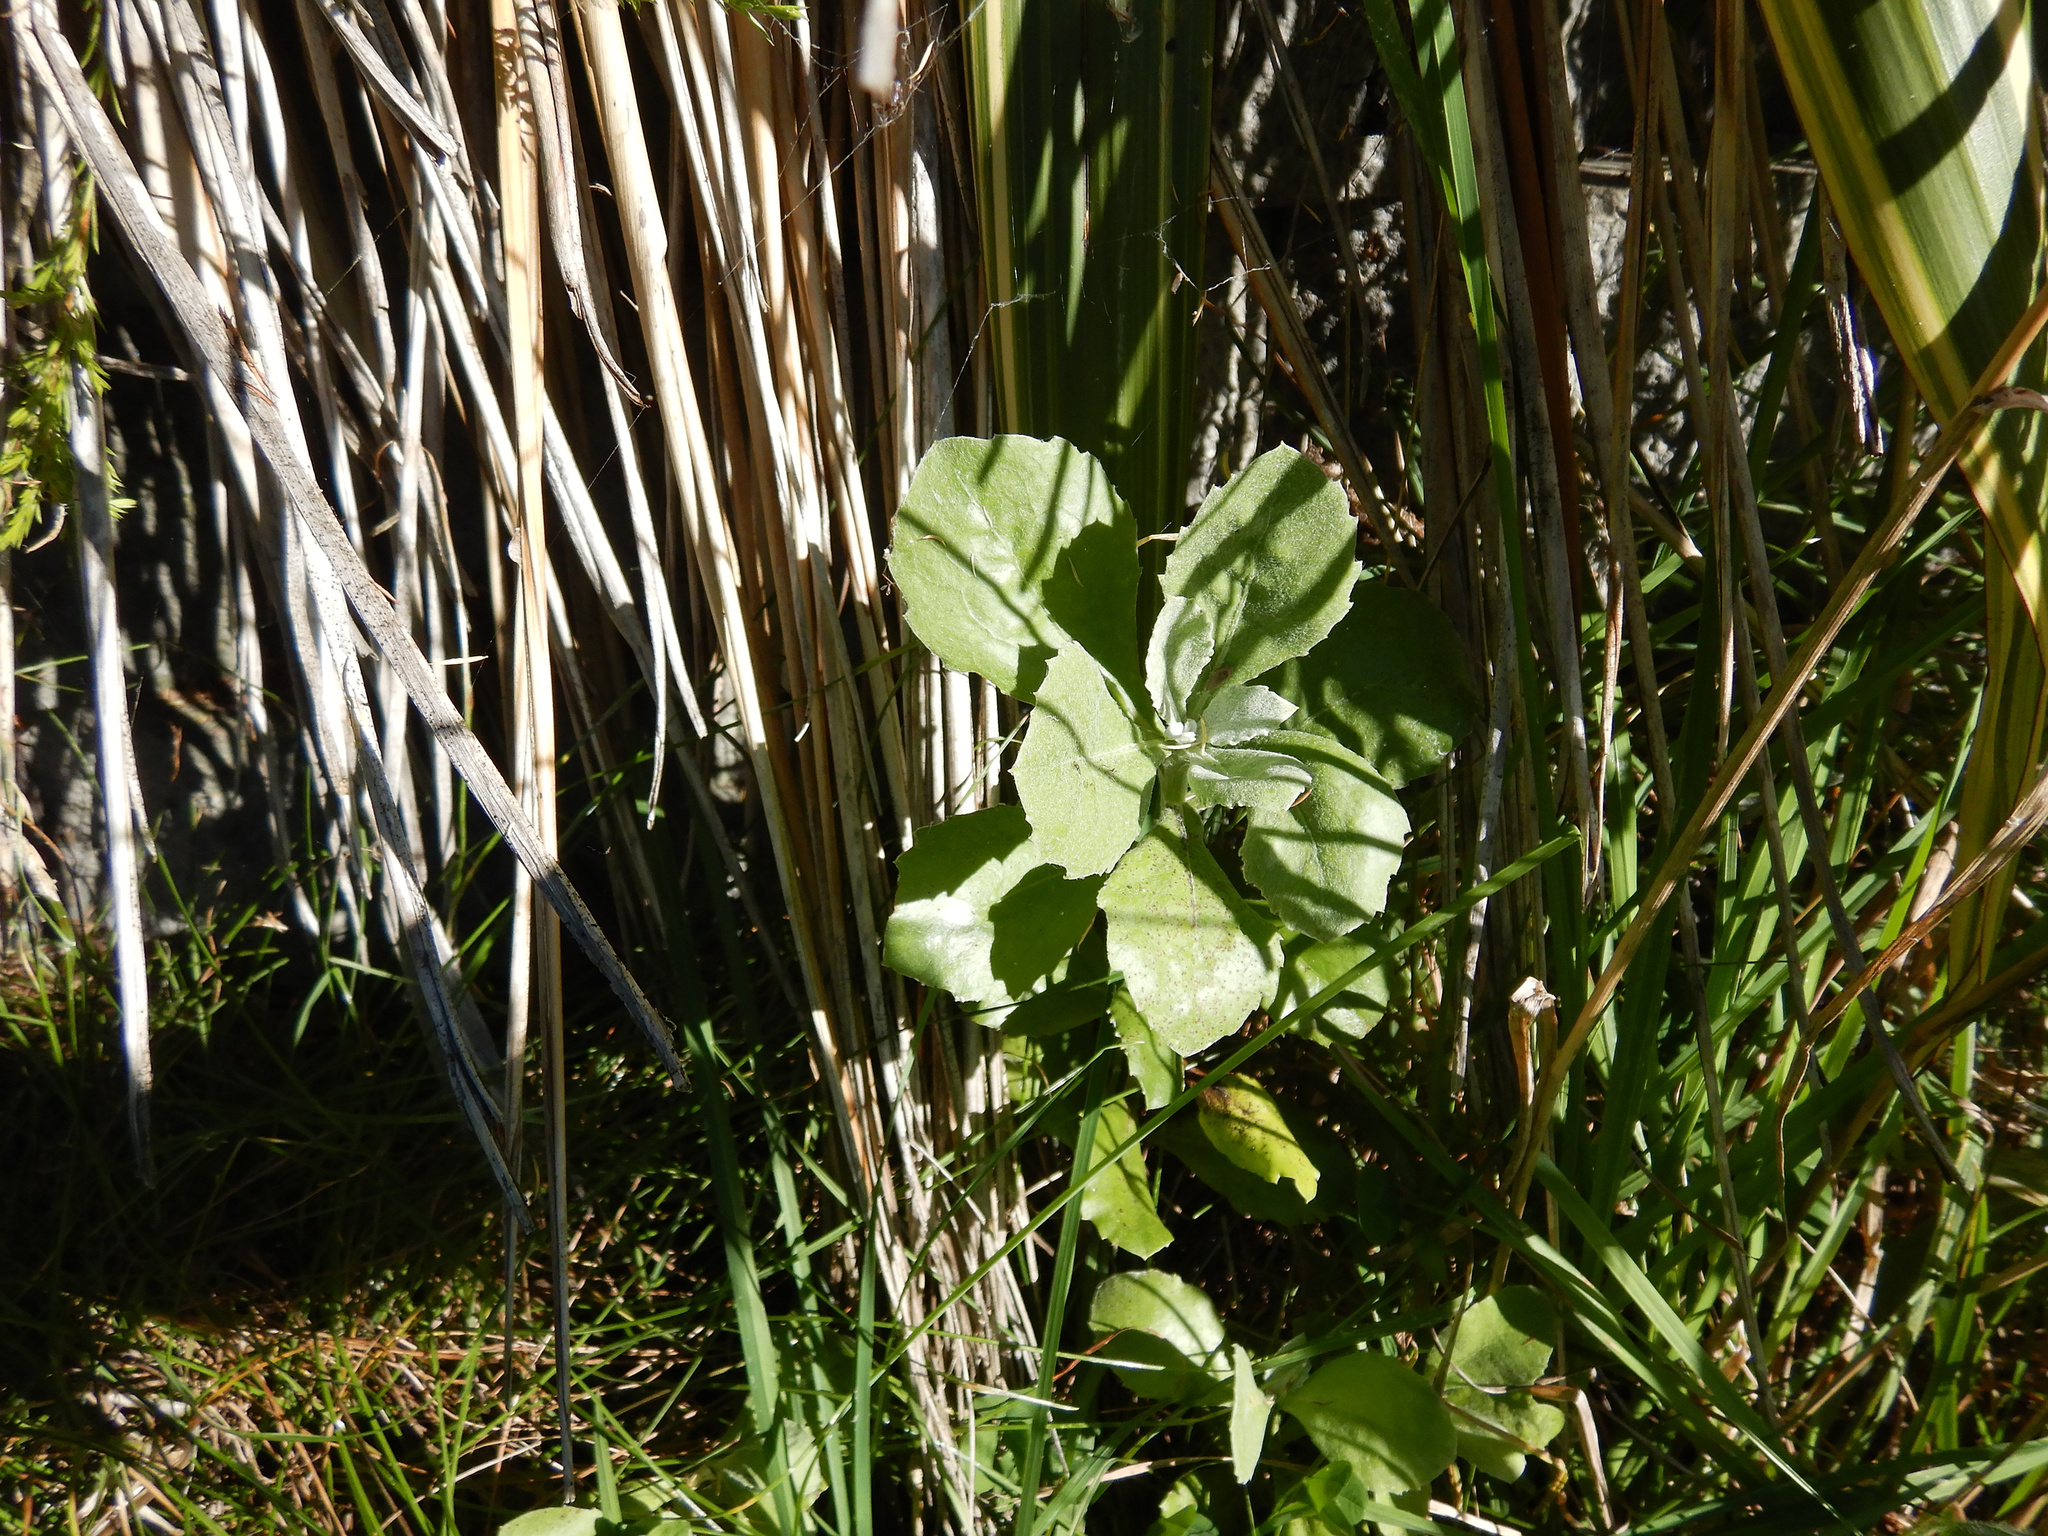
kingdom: Plantae
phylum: Tracheophyta
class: Magnoliopsida
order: Asterales
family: Asteraceae
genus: Osteospermum
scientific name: Osteospermum moniliferum
